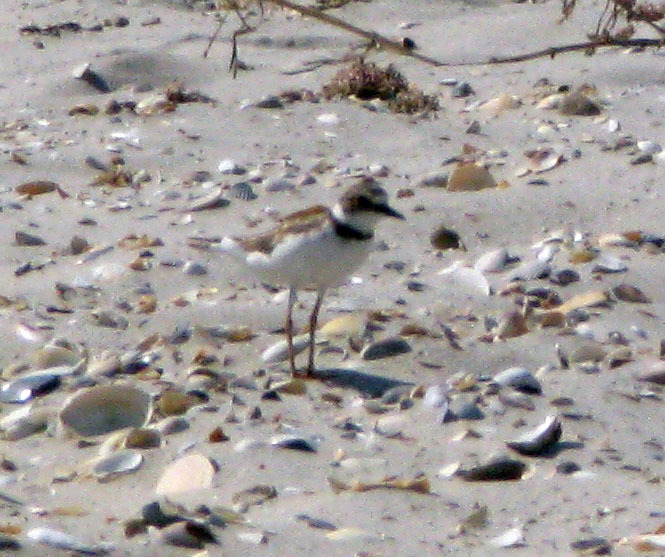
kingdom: Animalia
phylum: Chordata
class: Aves
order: Charadriiformes
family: Charadriidae
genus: Charadrius
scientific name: Charadrius dubius
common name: Little ringed plover
